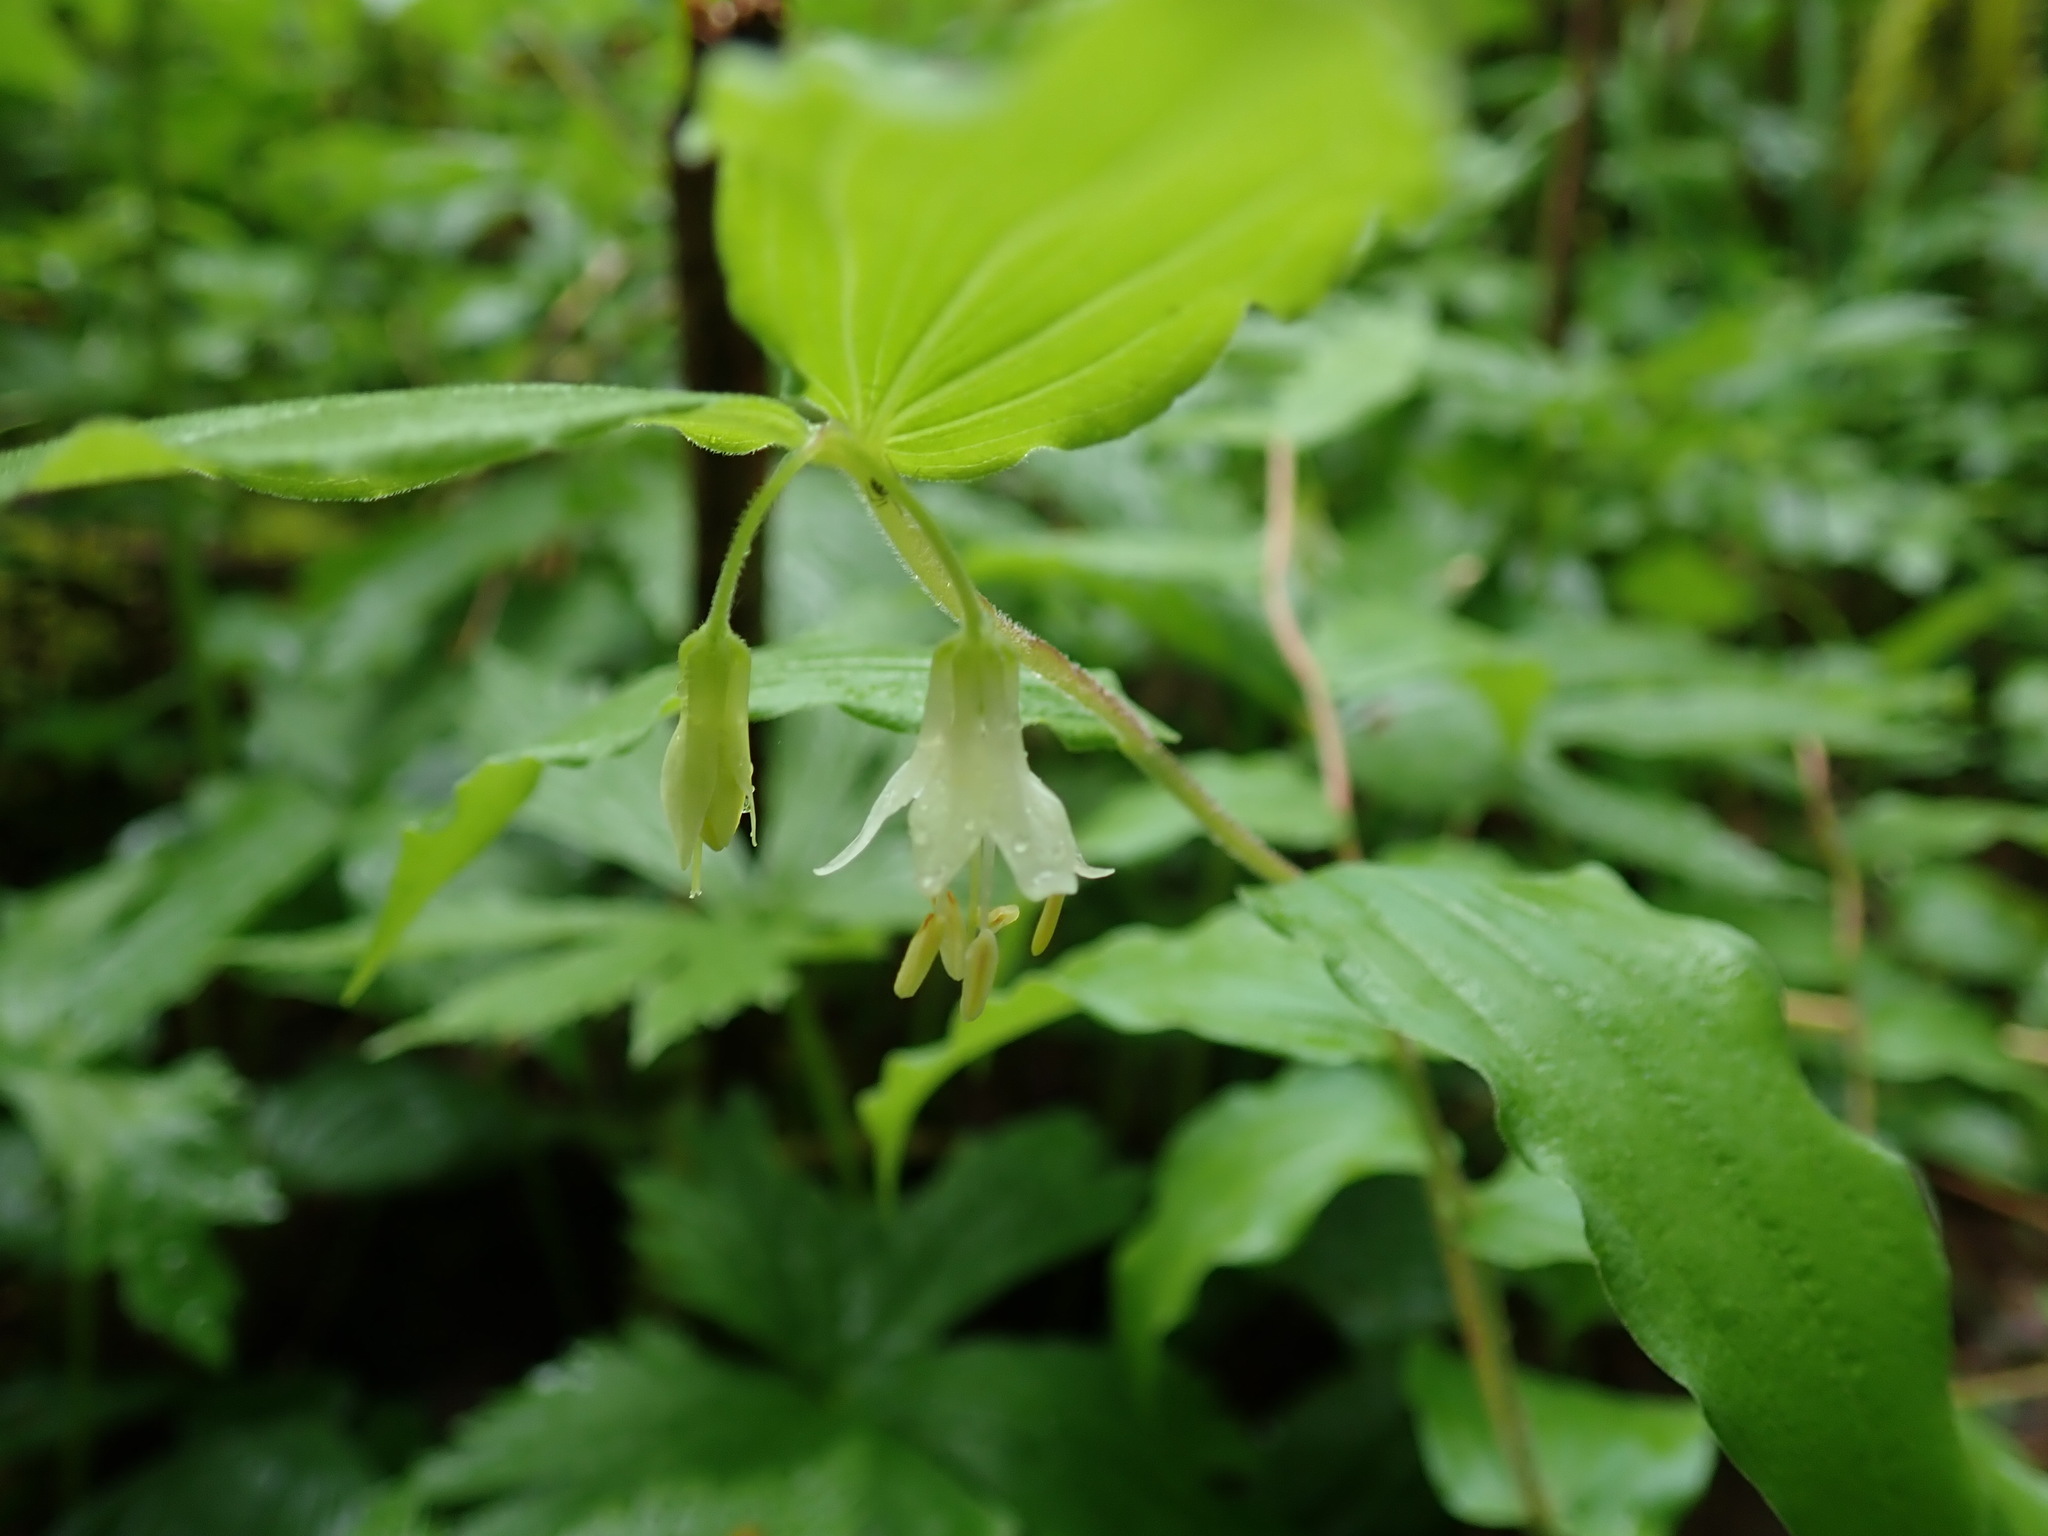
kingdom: Plantae
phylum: Tracheophyta
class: Liliopsida
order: Liliales
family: Liliaceae
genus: Prosartes
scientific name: Prosartes hookeri
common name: Fairy-bells
